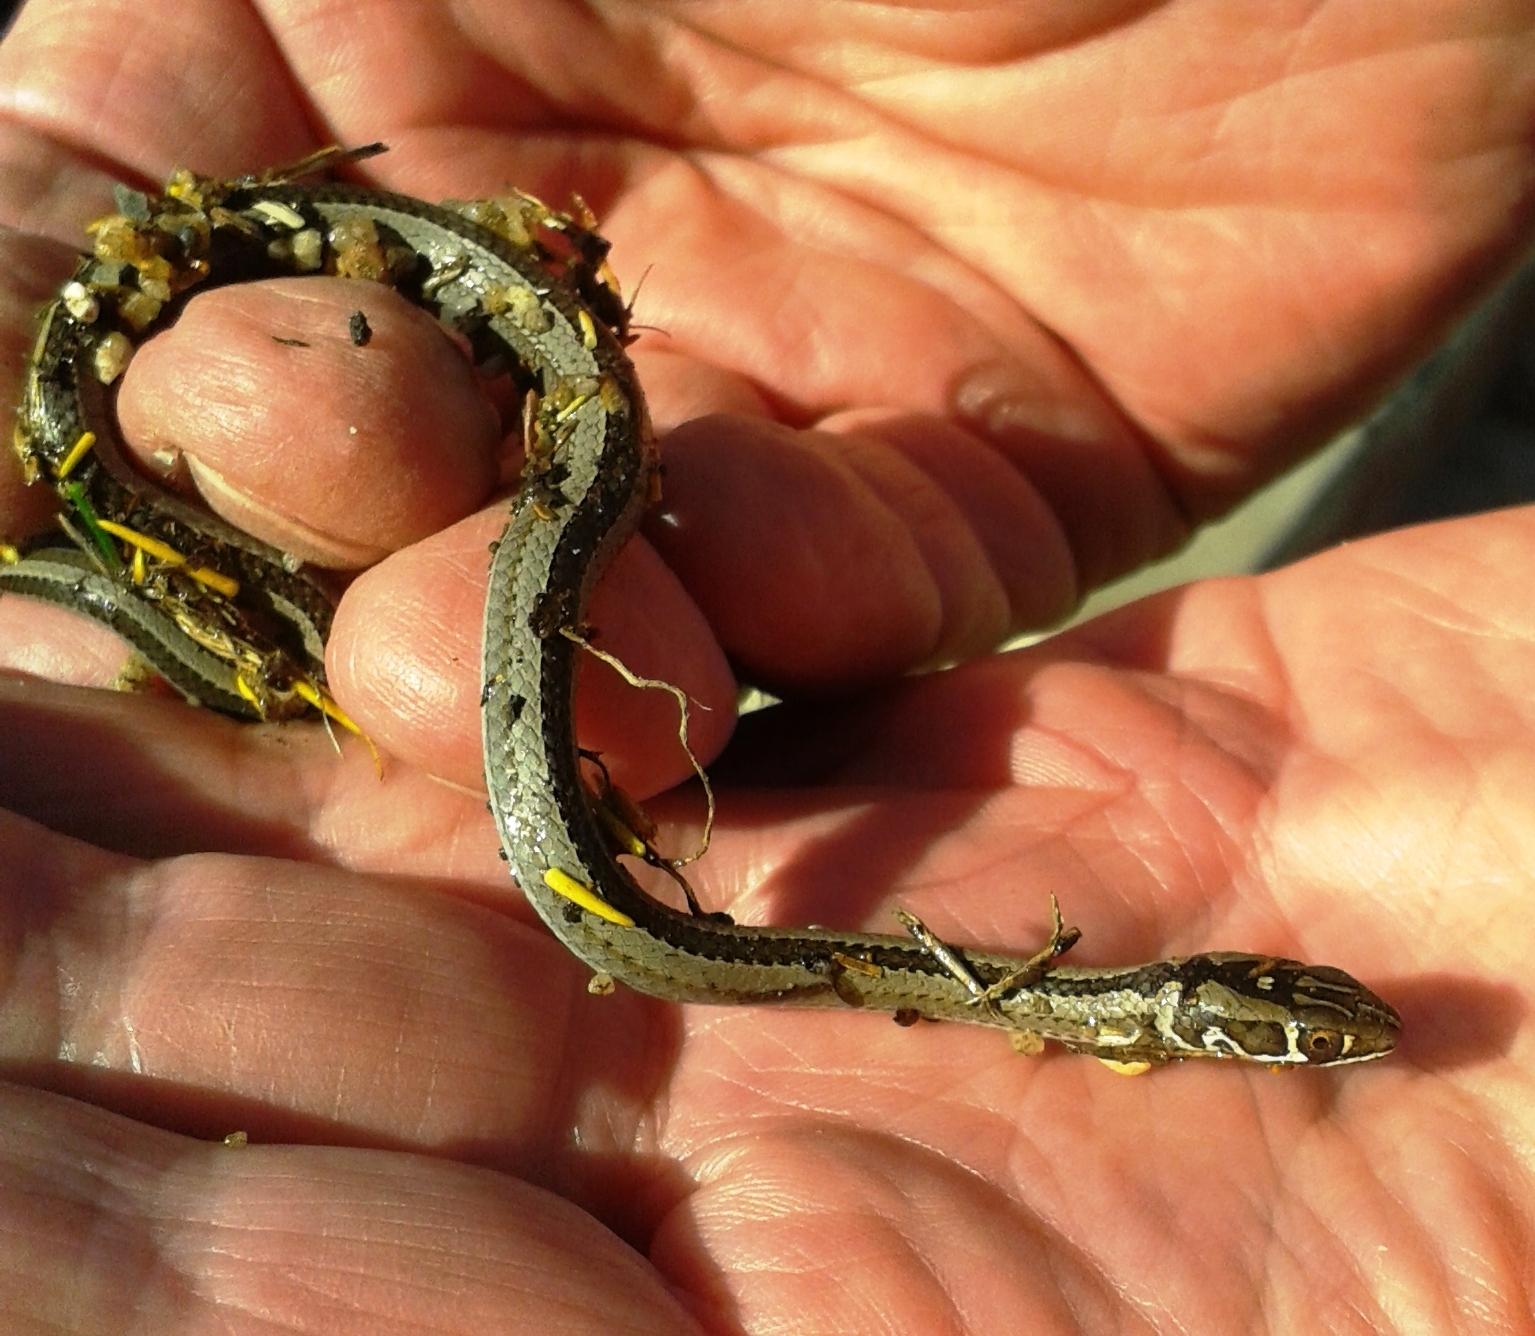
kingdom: Animalia
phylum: Chordata
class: Squamata
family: Psammophiidae
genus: Psammophis
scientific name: Psammophis crucifer
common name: Cross-marked grass snake
